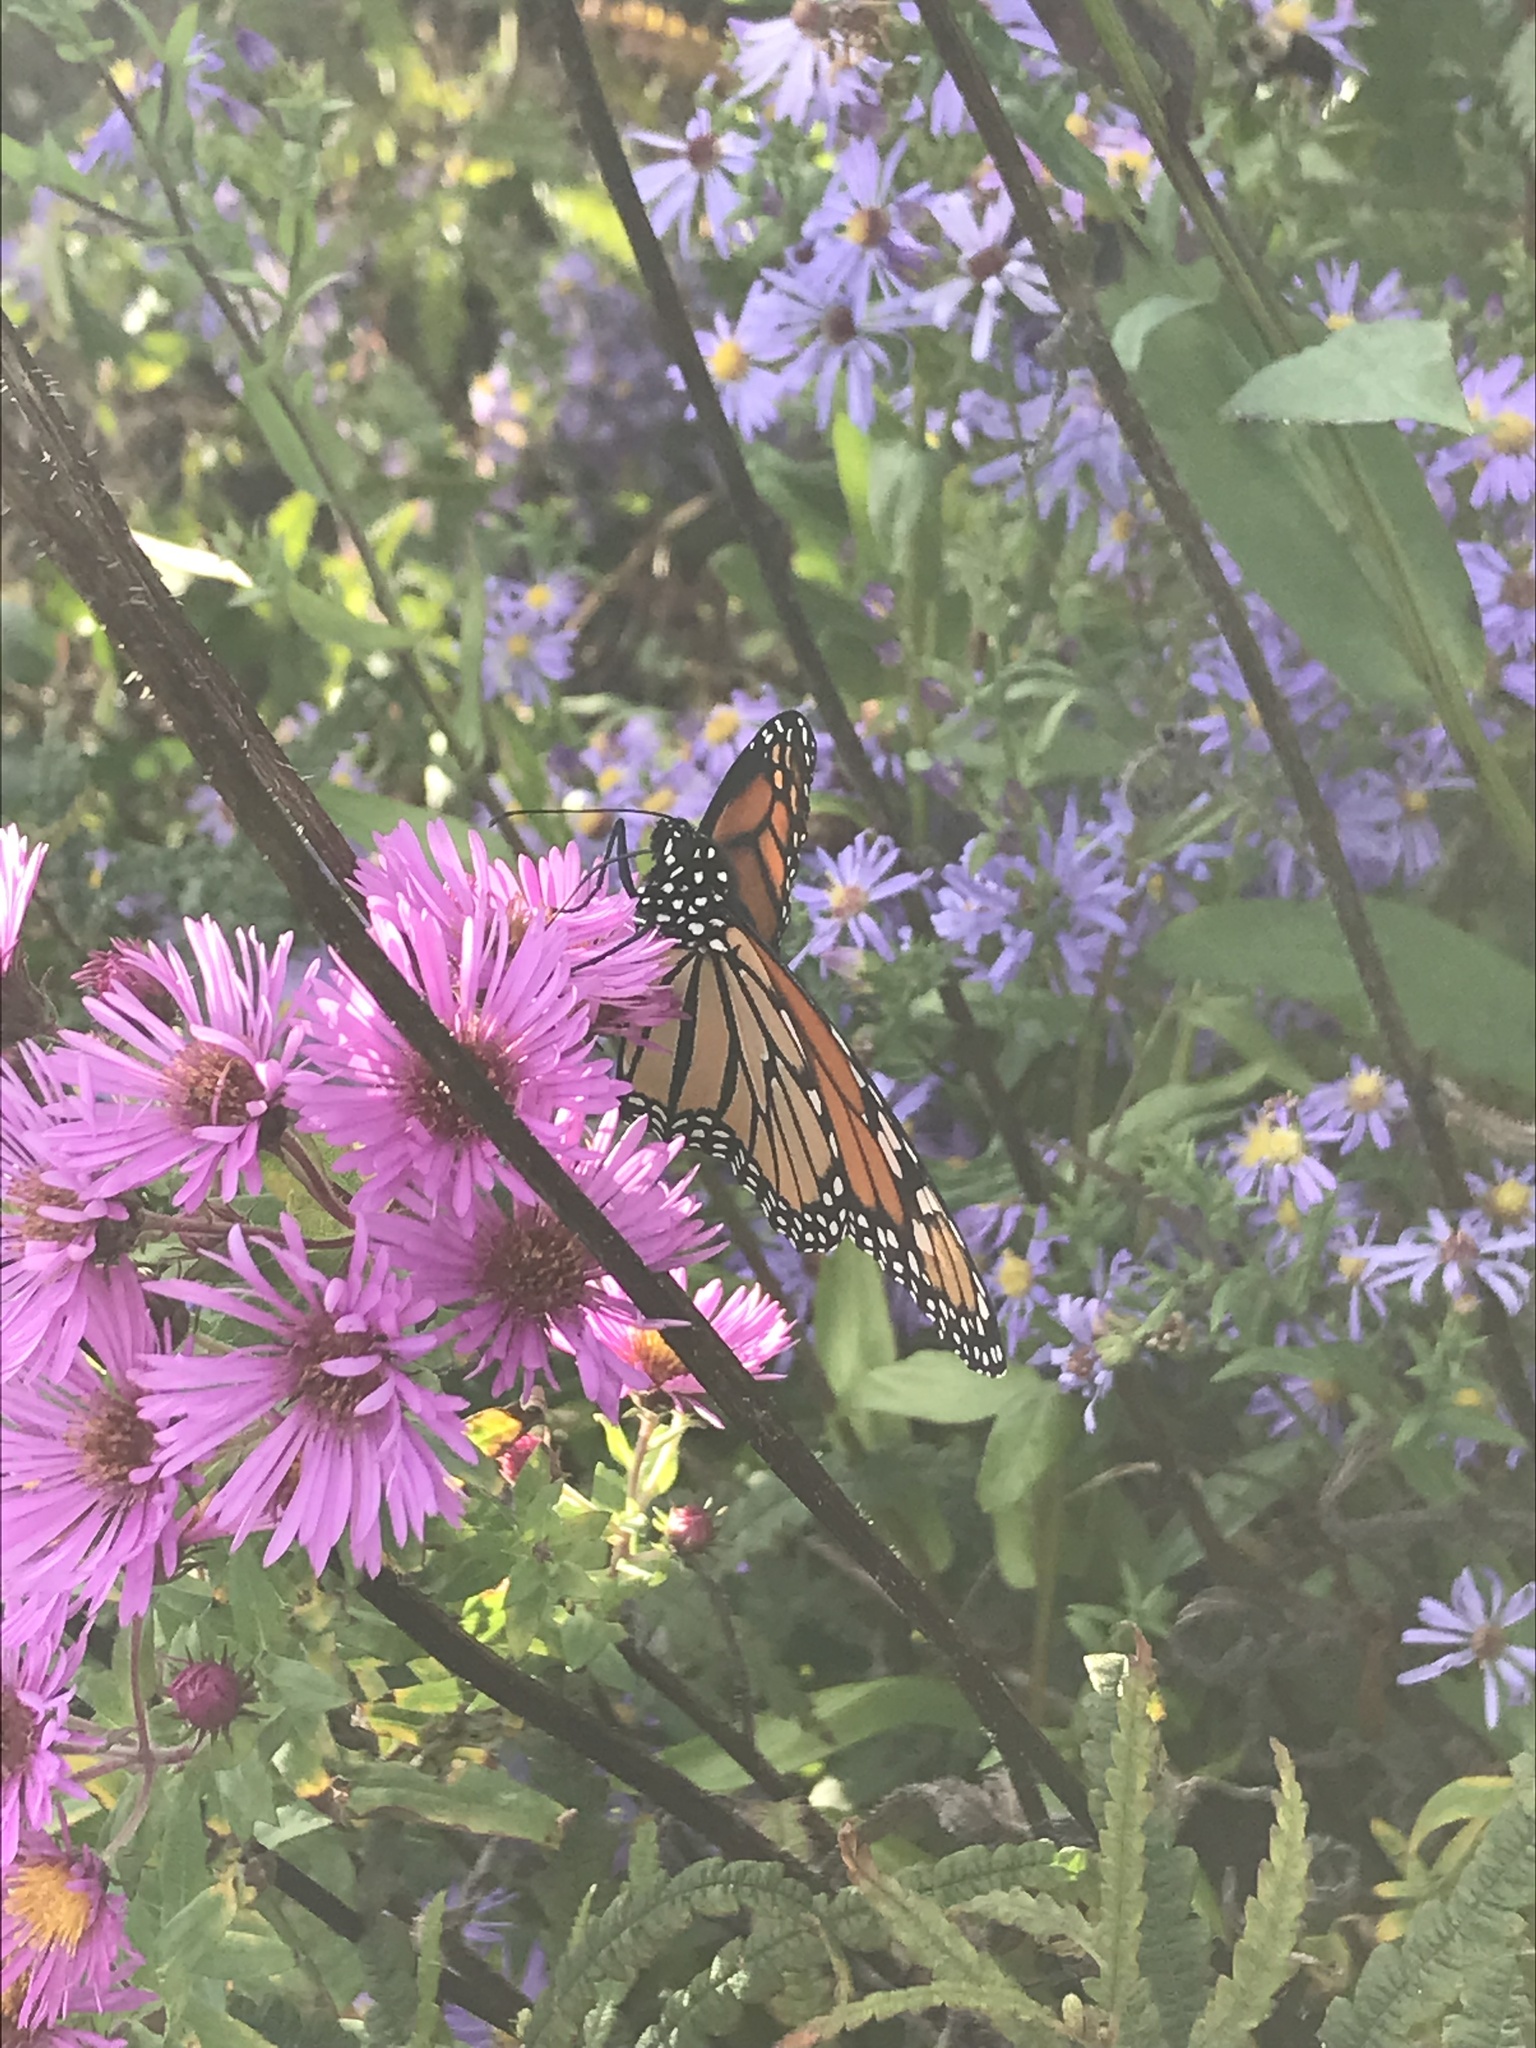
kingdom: Animalia
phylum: Arthropoda
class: Insecta
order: Lepidoptera
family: Nymphalidae
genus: Danaus
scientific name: Danaus plexippus
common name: Monarch
